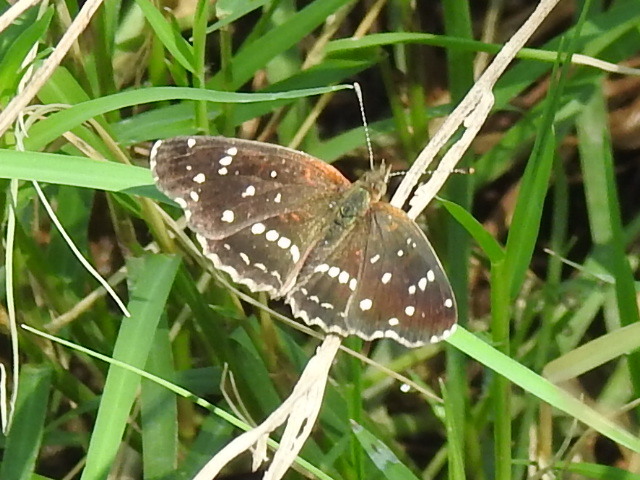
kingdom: Animalia
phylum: Arthropoda
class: Insecta
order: Lepidoptera
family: Nymphalidae
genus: Anthanassa
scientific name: Anthanassa texana
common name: Texan crescent
